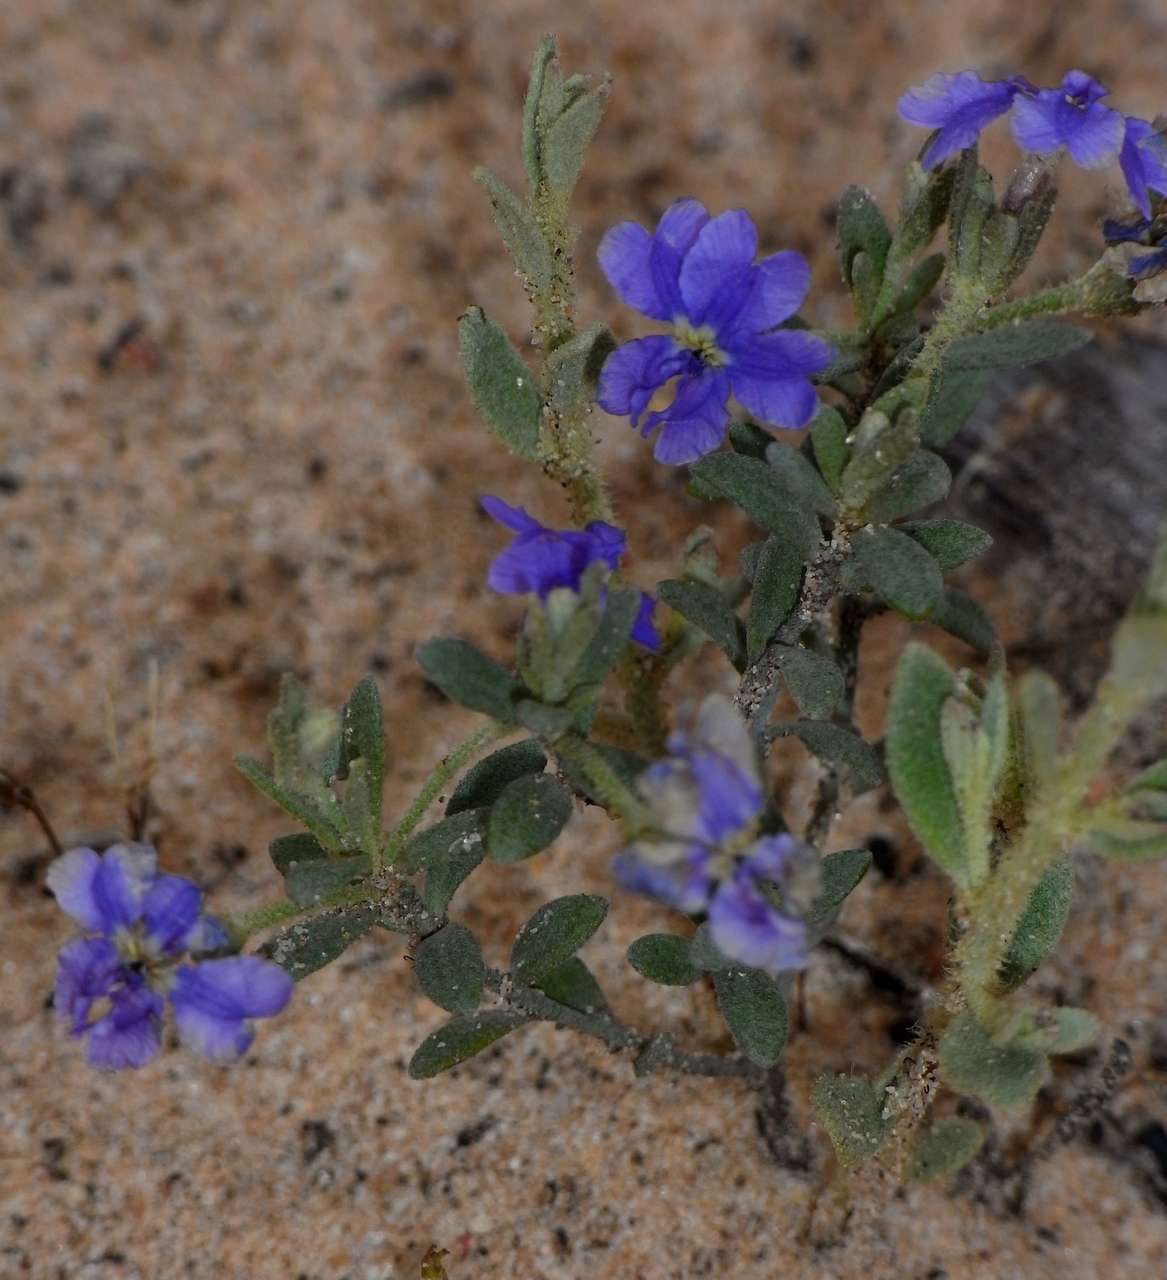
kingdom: Plantae
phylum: Tracheophyta
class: Magnoliopsida
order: Asterales
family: Goodeniaceae
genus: Dampiera
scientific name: Dampiera marifolia
